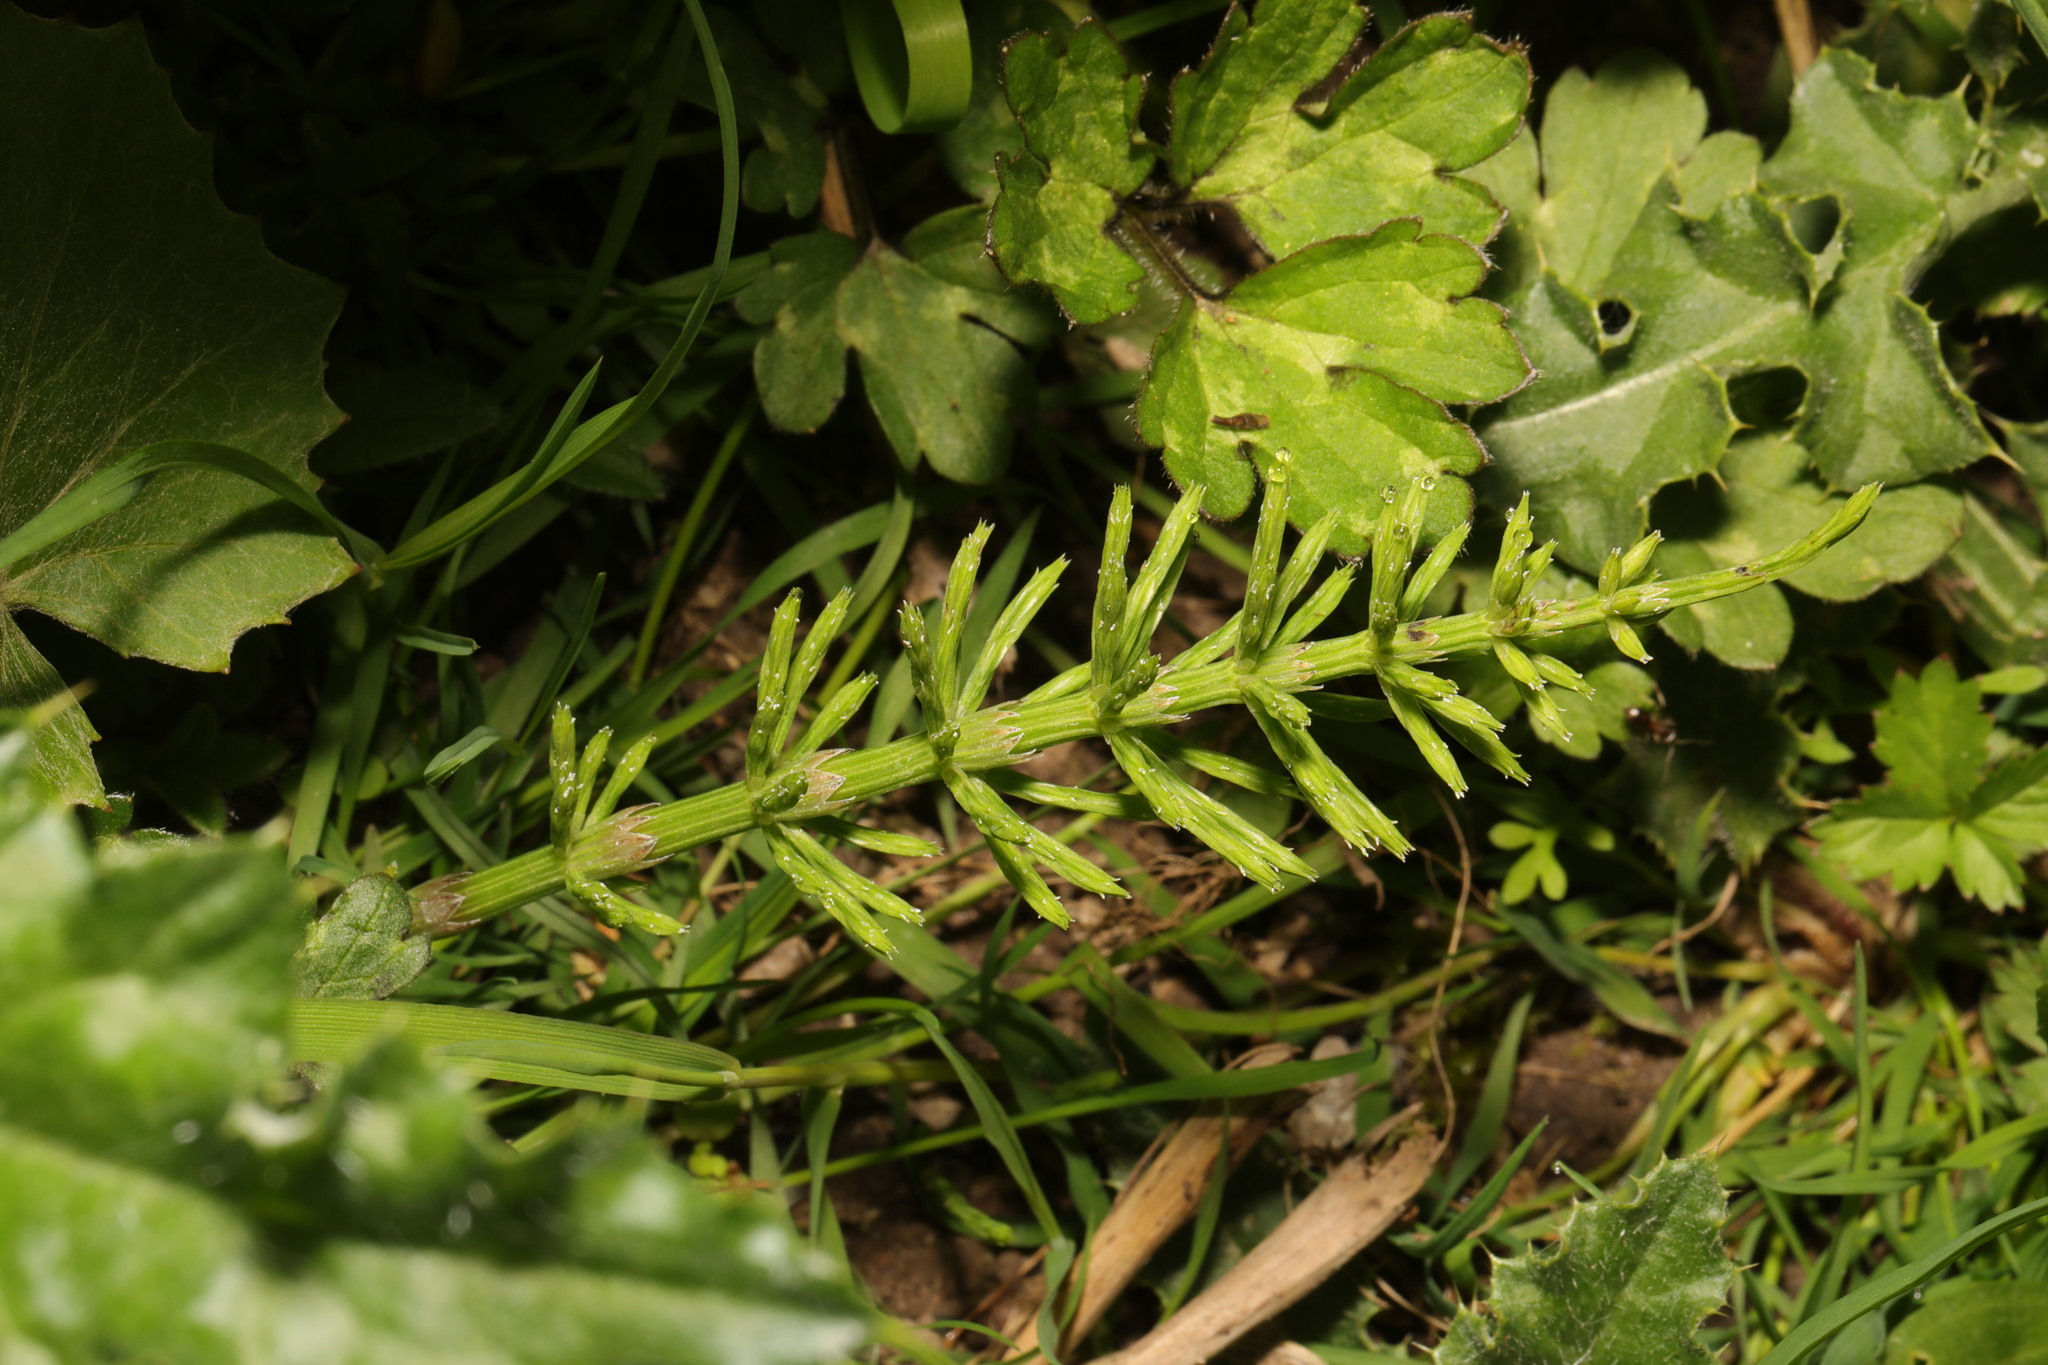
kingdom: Plantae
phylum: Tracheophyta
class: Polypodiopsida
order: Equisetales
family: Equisetaceae
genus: Equisetum
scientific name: Equisetum arvense
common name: Field horsetail
